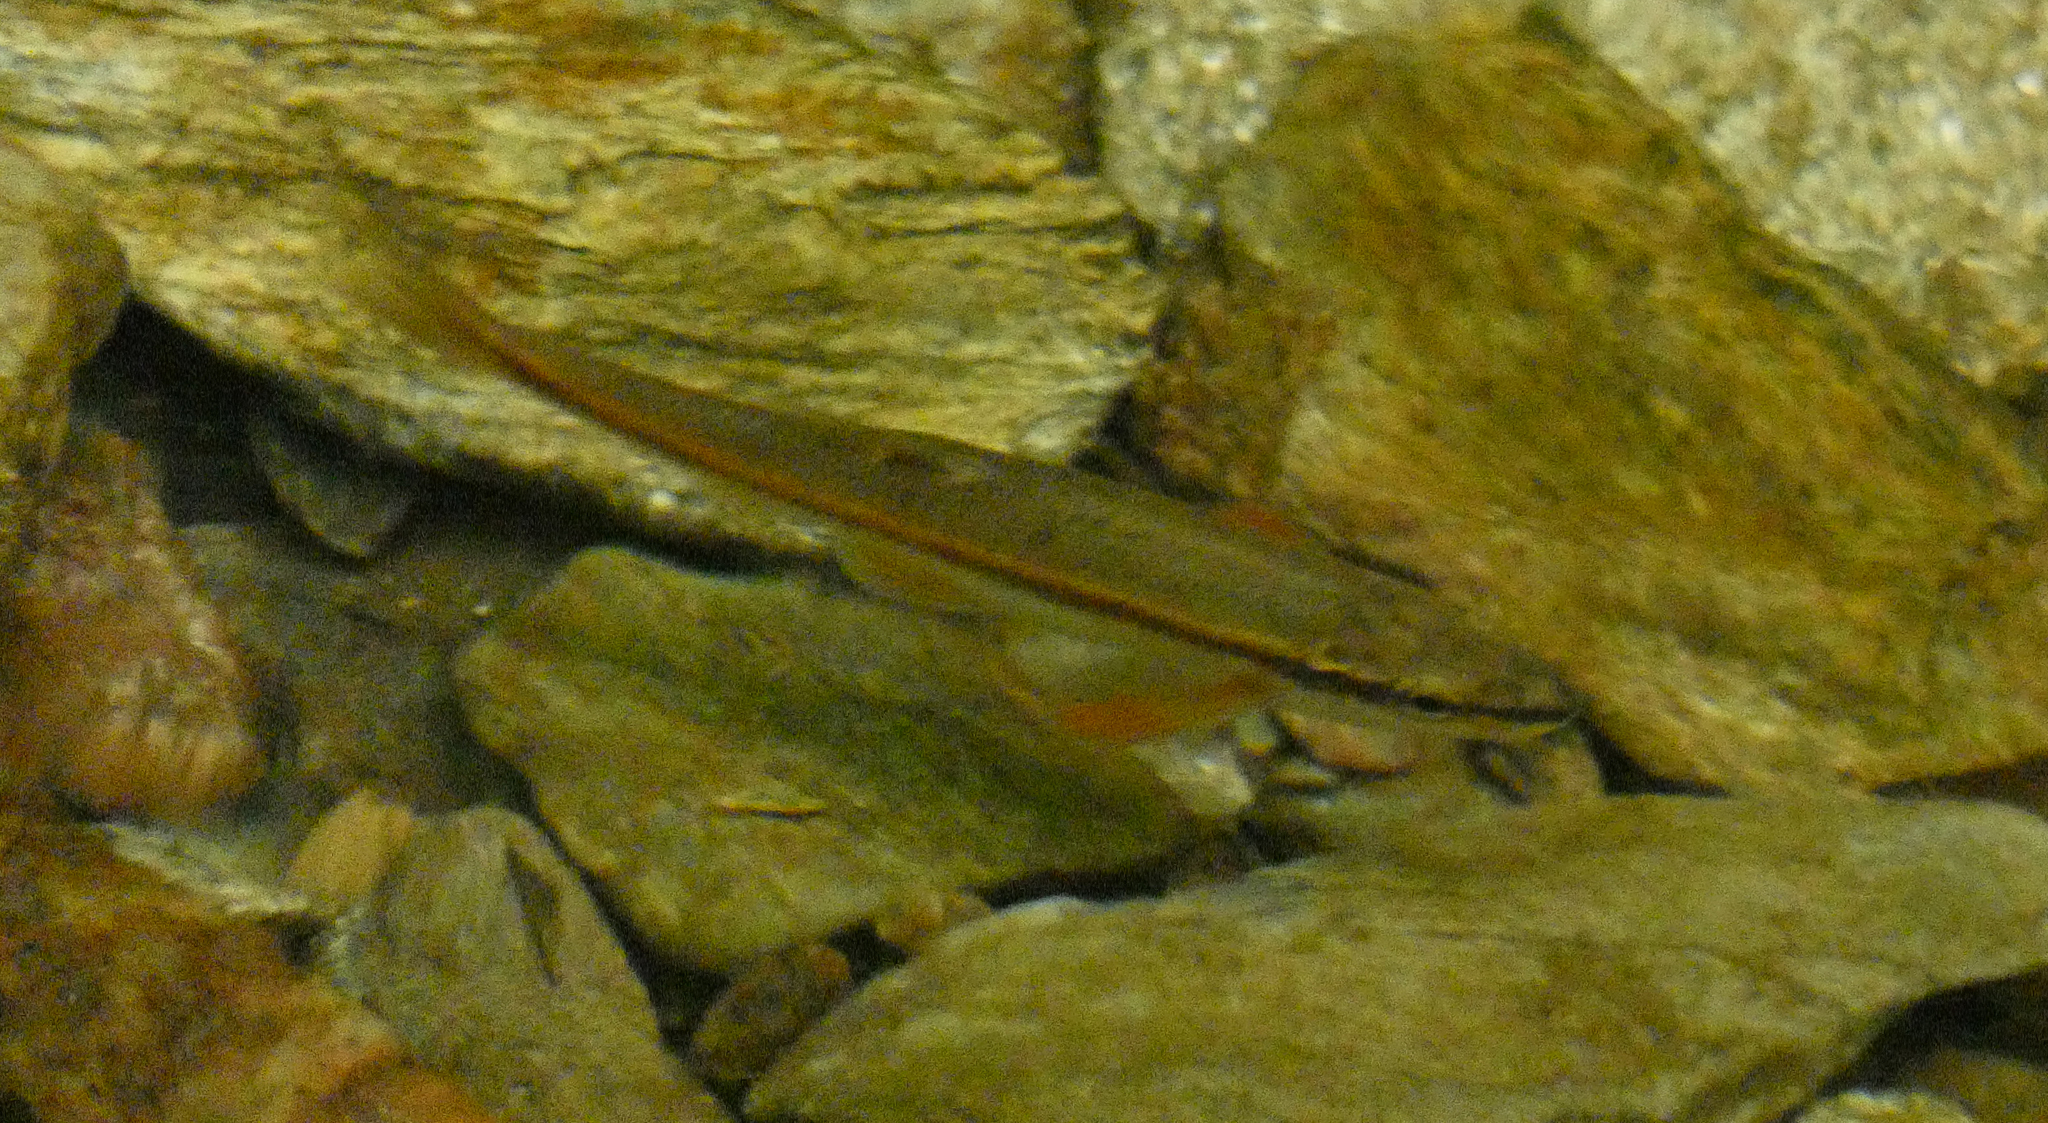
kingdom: Animalia
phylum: Chordata
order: Cypriniformes
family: Cyprinidae
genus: Rhinichthys
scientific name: Rhinichthys atratulus
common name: Eastern blacknose dace
